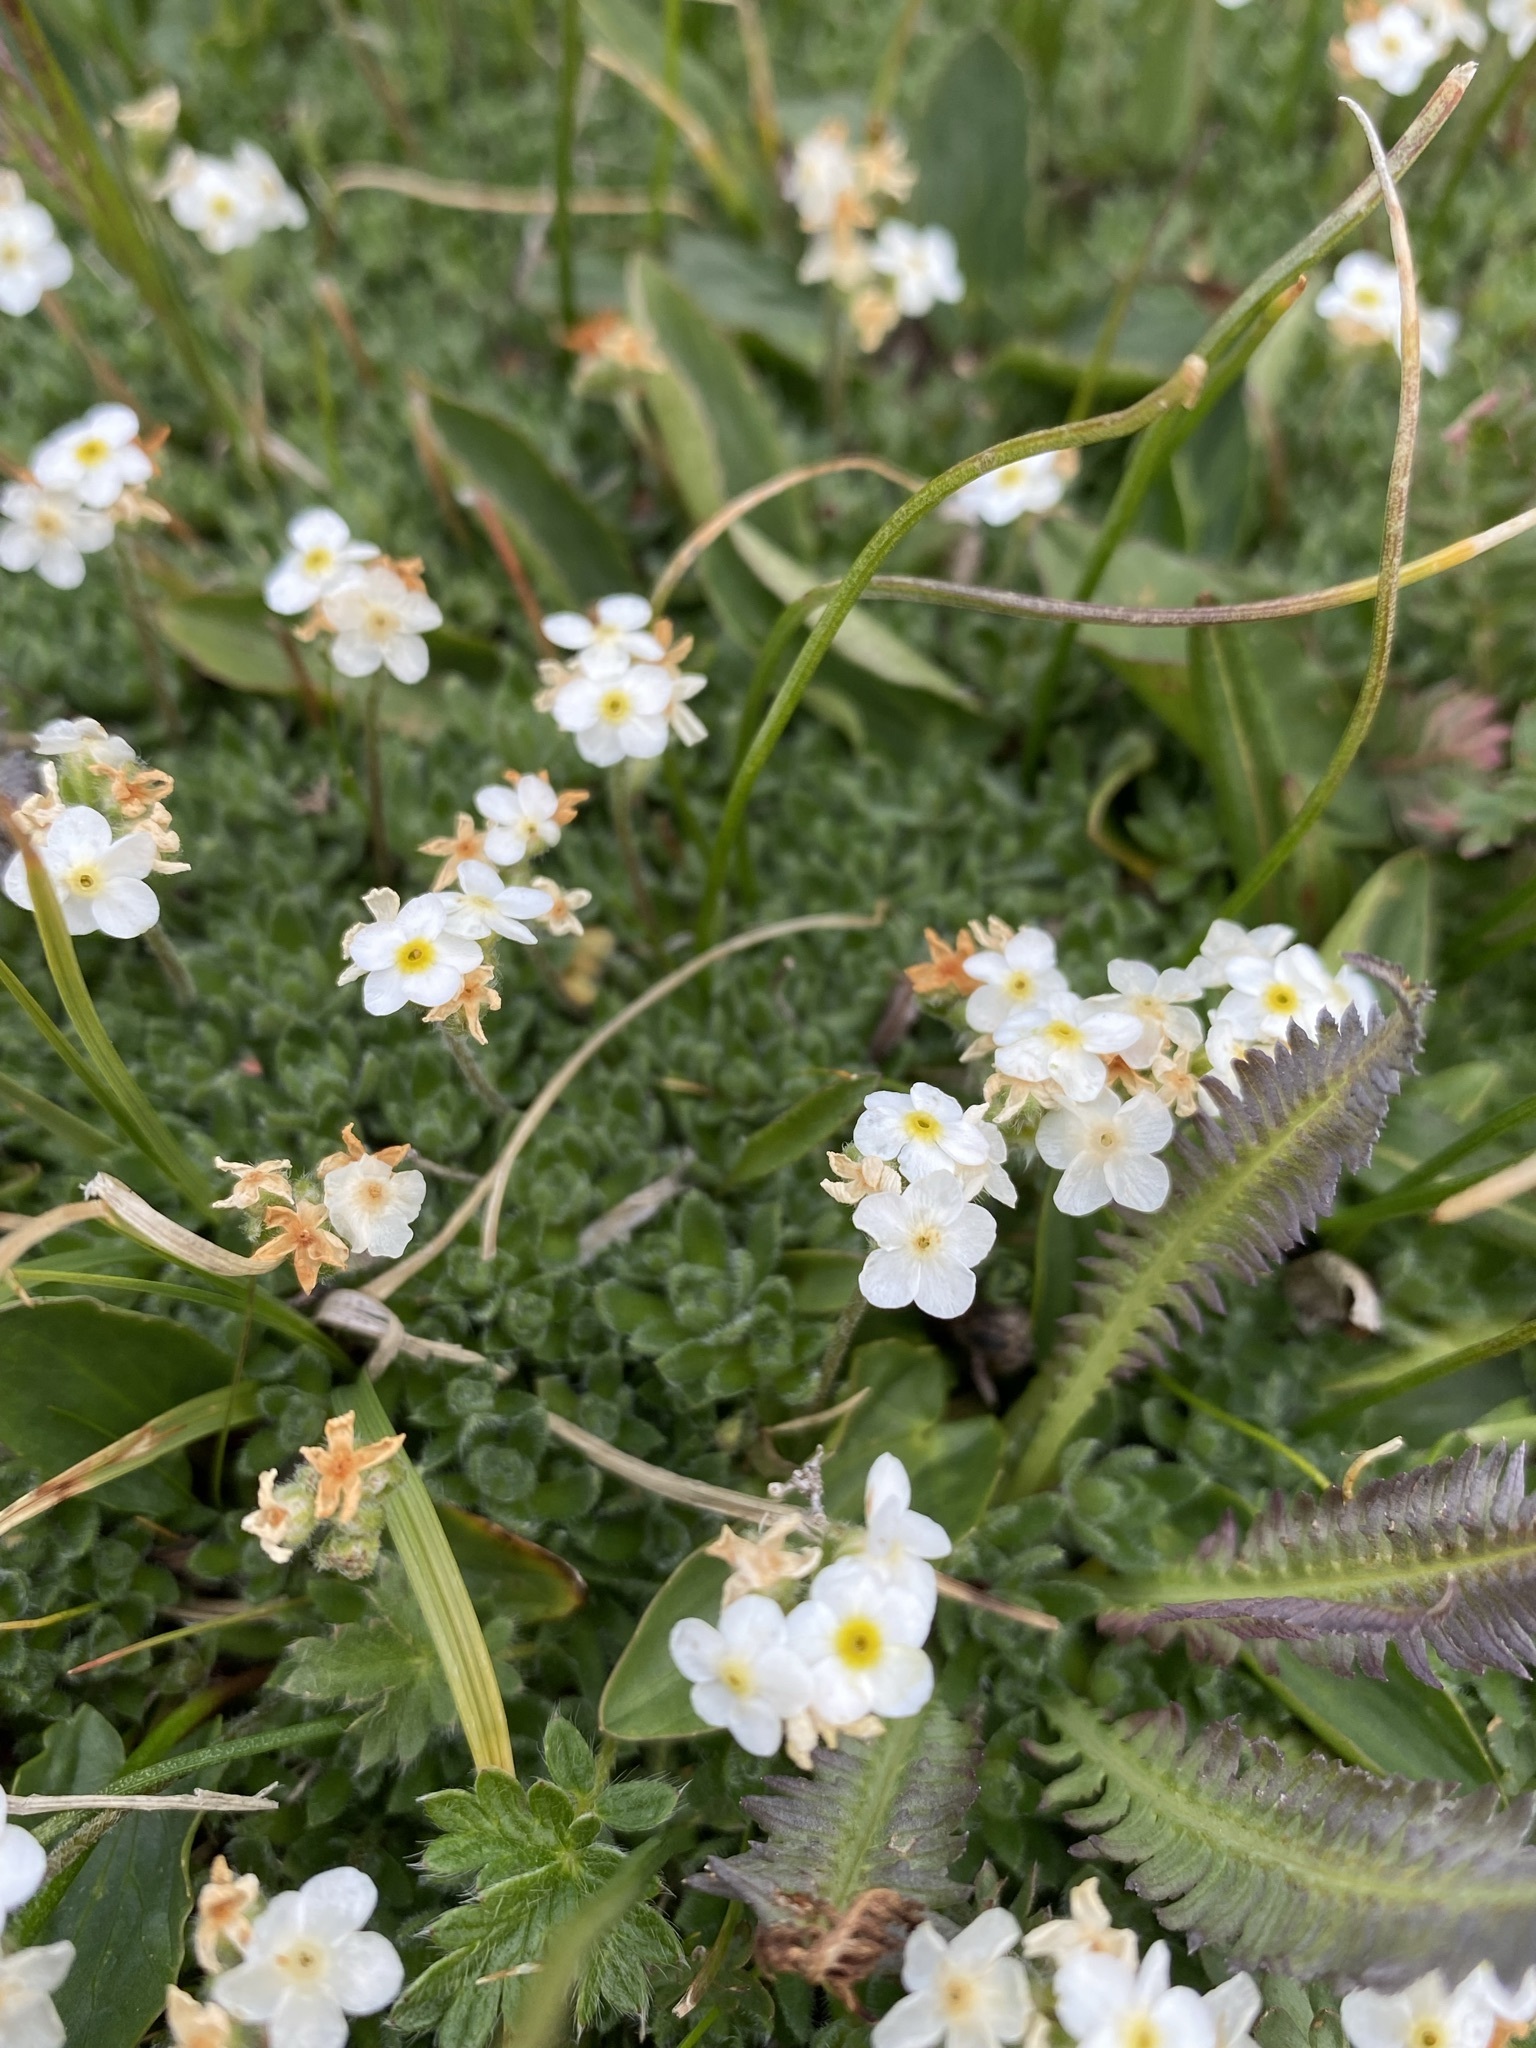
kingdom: Plantae
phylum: Tracheophyta
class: Magnoliopsida
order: Ericales
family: Primulaceae
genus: Androsace
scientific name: Androsace chamaejasme
